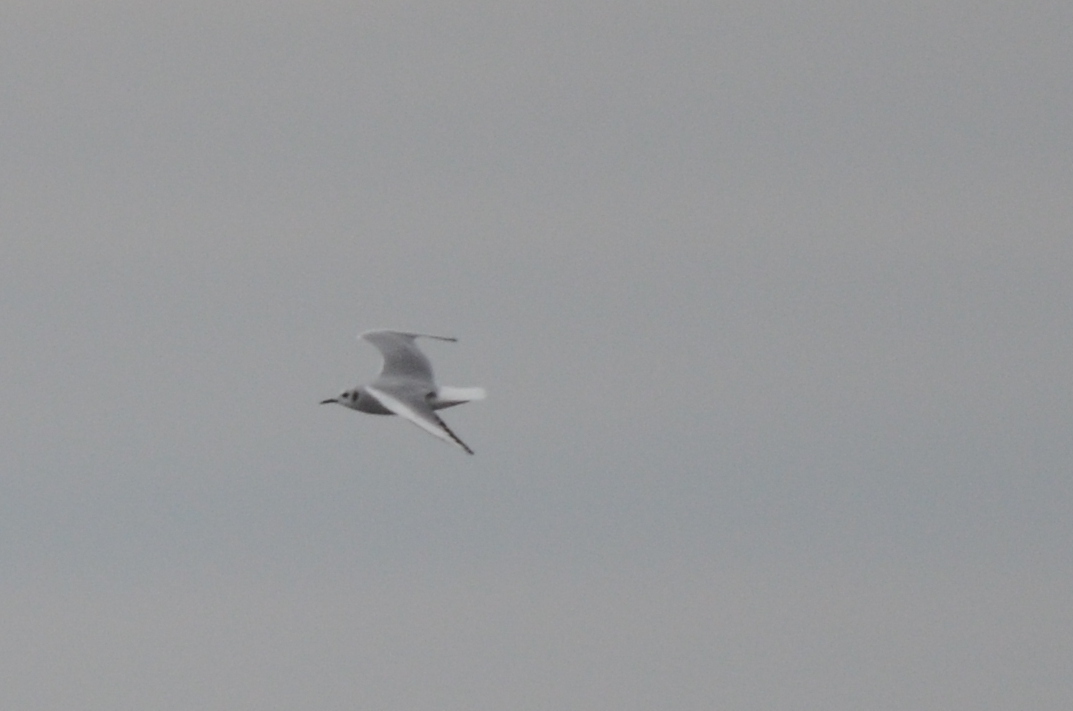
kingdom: Animalia
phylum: Chordata
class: Aves
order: Charadriiformes
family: Laridae
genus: Chroicocephalus
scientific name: Chroicocephalus philadelphia
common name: Bonaparte's gull
